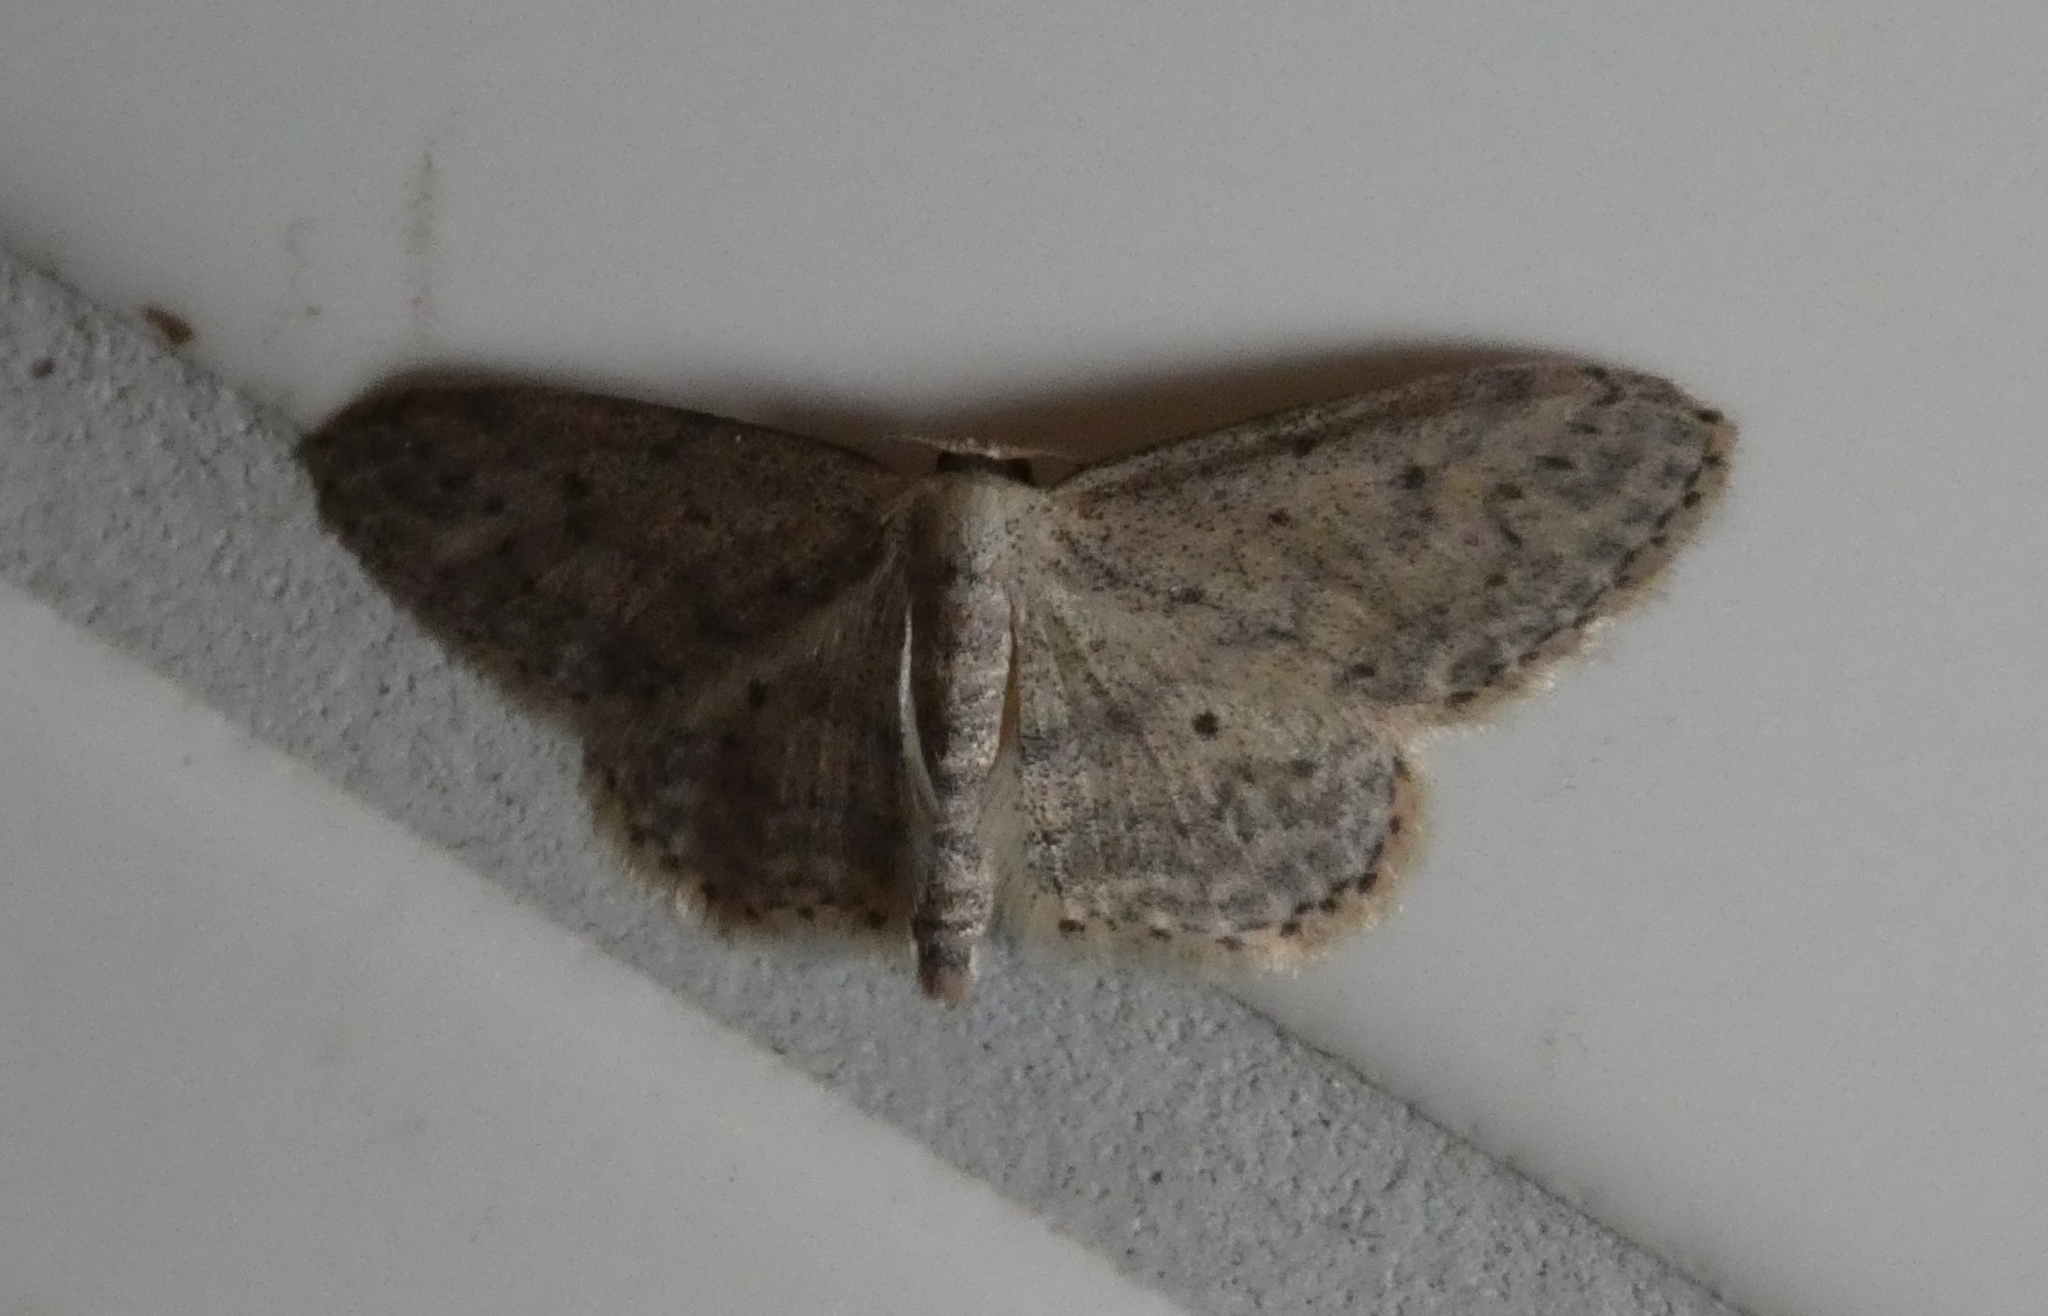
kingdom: Animalia
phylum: Arthropoda
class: Insecta
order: Lepidoptera
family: Geometridae
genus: Idaea
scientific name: Idaea seriata
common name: Small dusty wave
